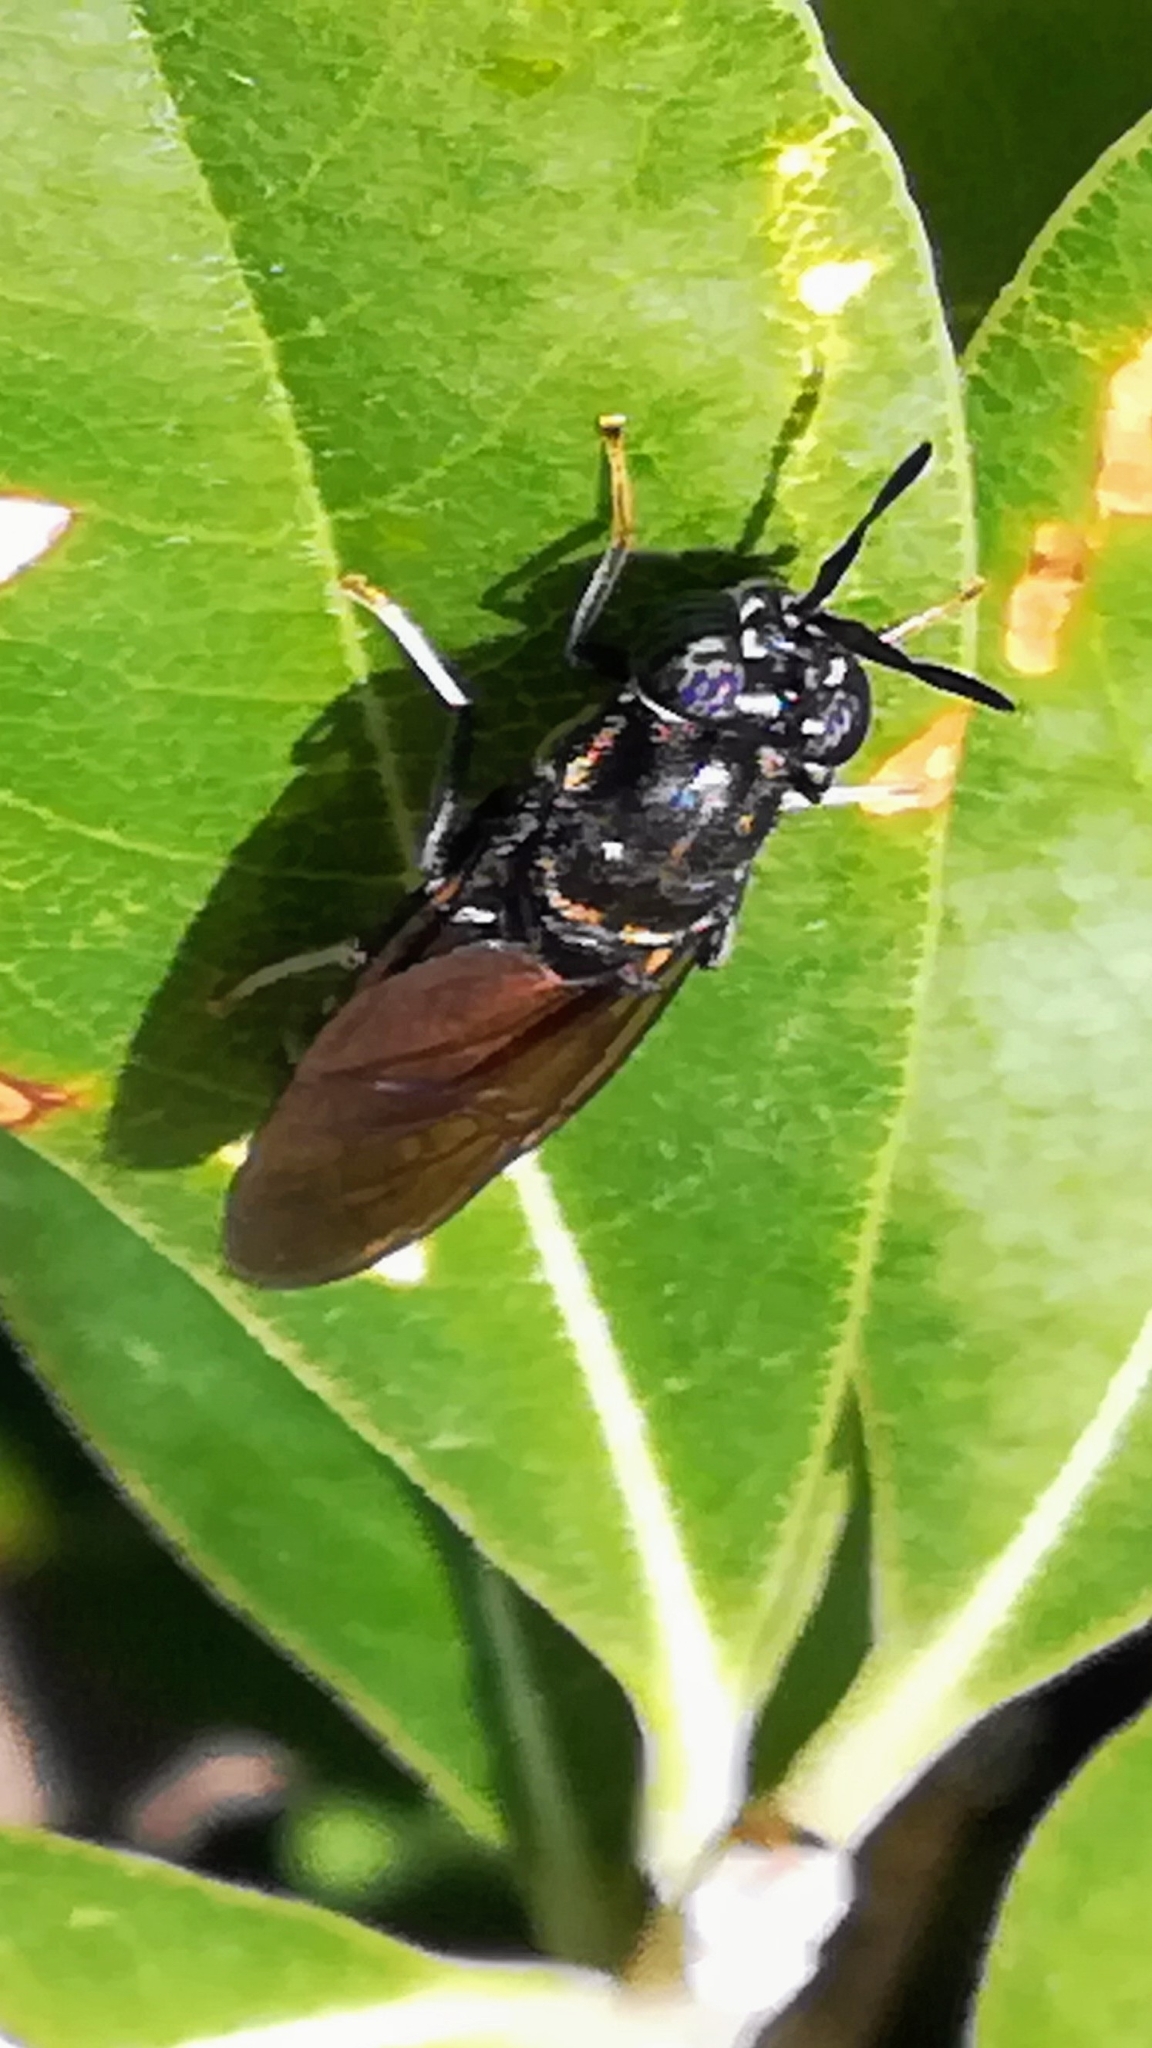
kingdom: Animalia
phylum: Arthropoda
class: Insecta
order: Diptera
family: Stratiomyidae
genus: Hermetia
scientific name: Hermetia illucens
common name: Black soldier fly
